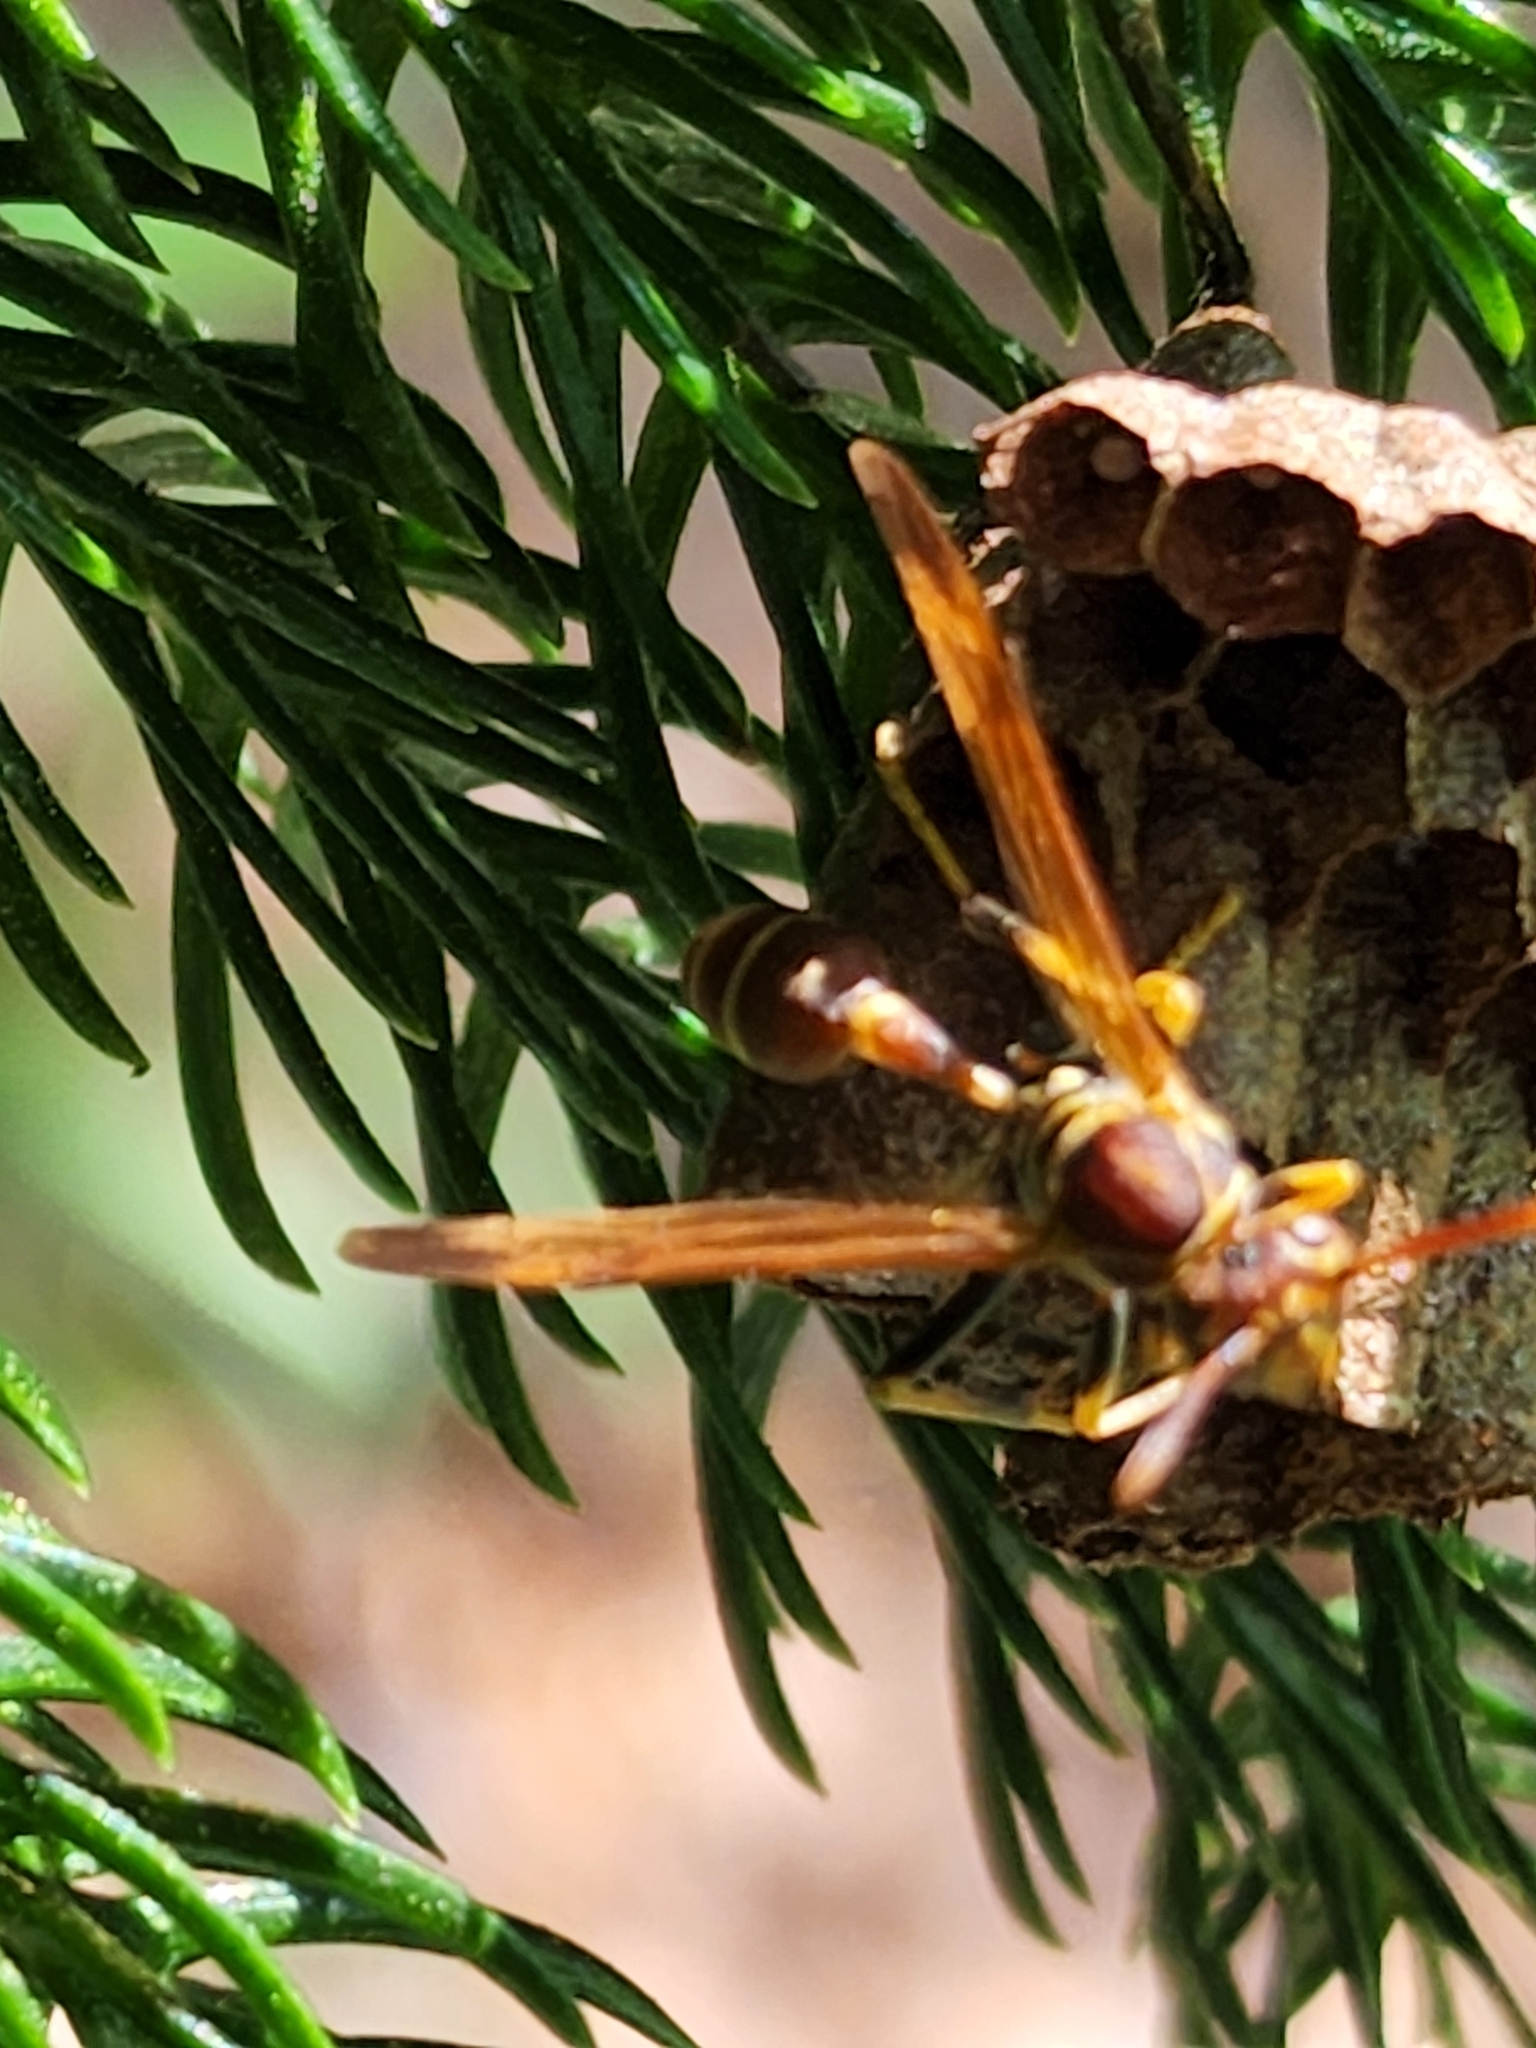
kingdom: Animalia
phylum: Arthropoda
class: Insecta
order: Hymenoptera
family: Vespidae
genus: Mischocyttarus
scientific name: Mischocyttarus mexicanus
